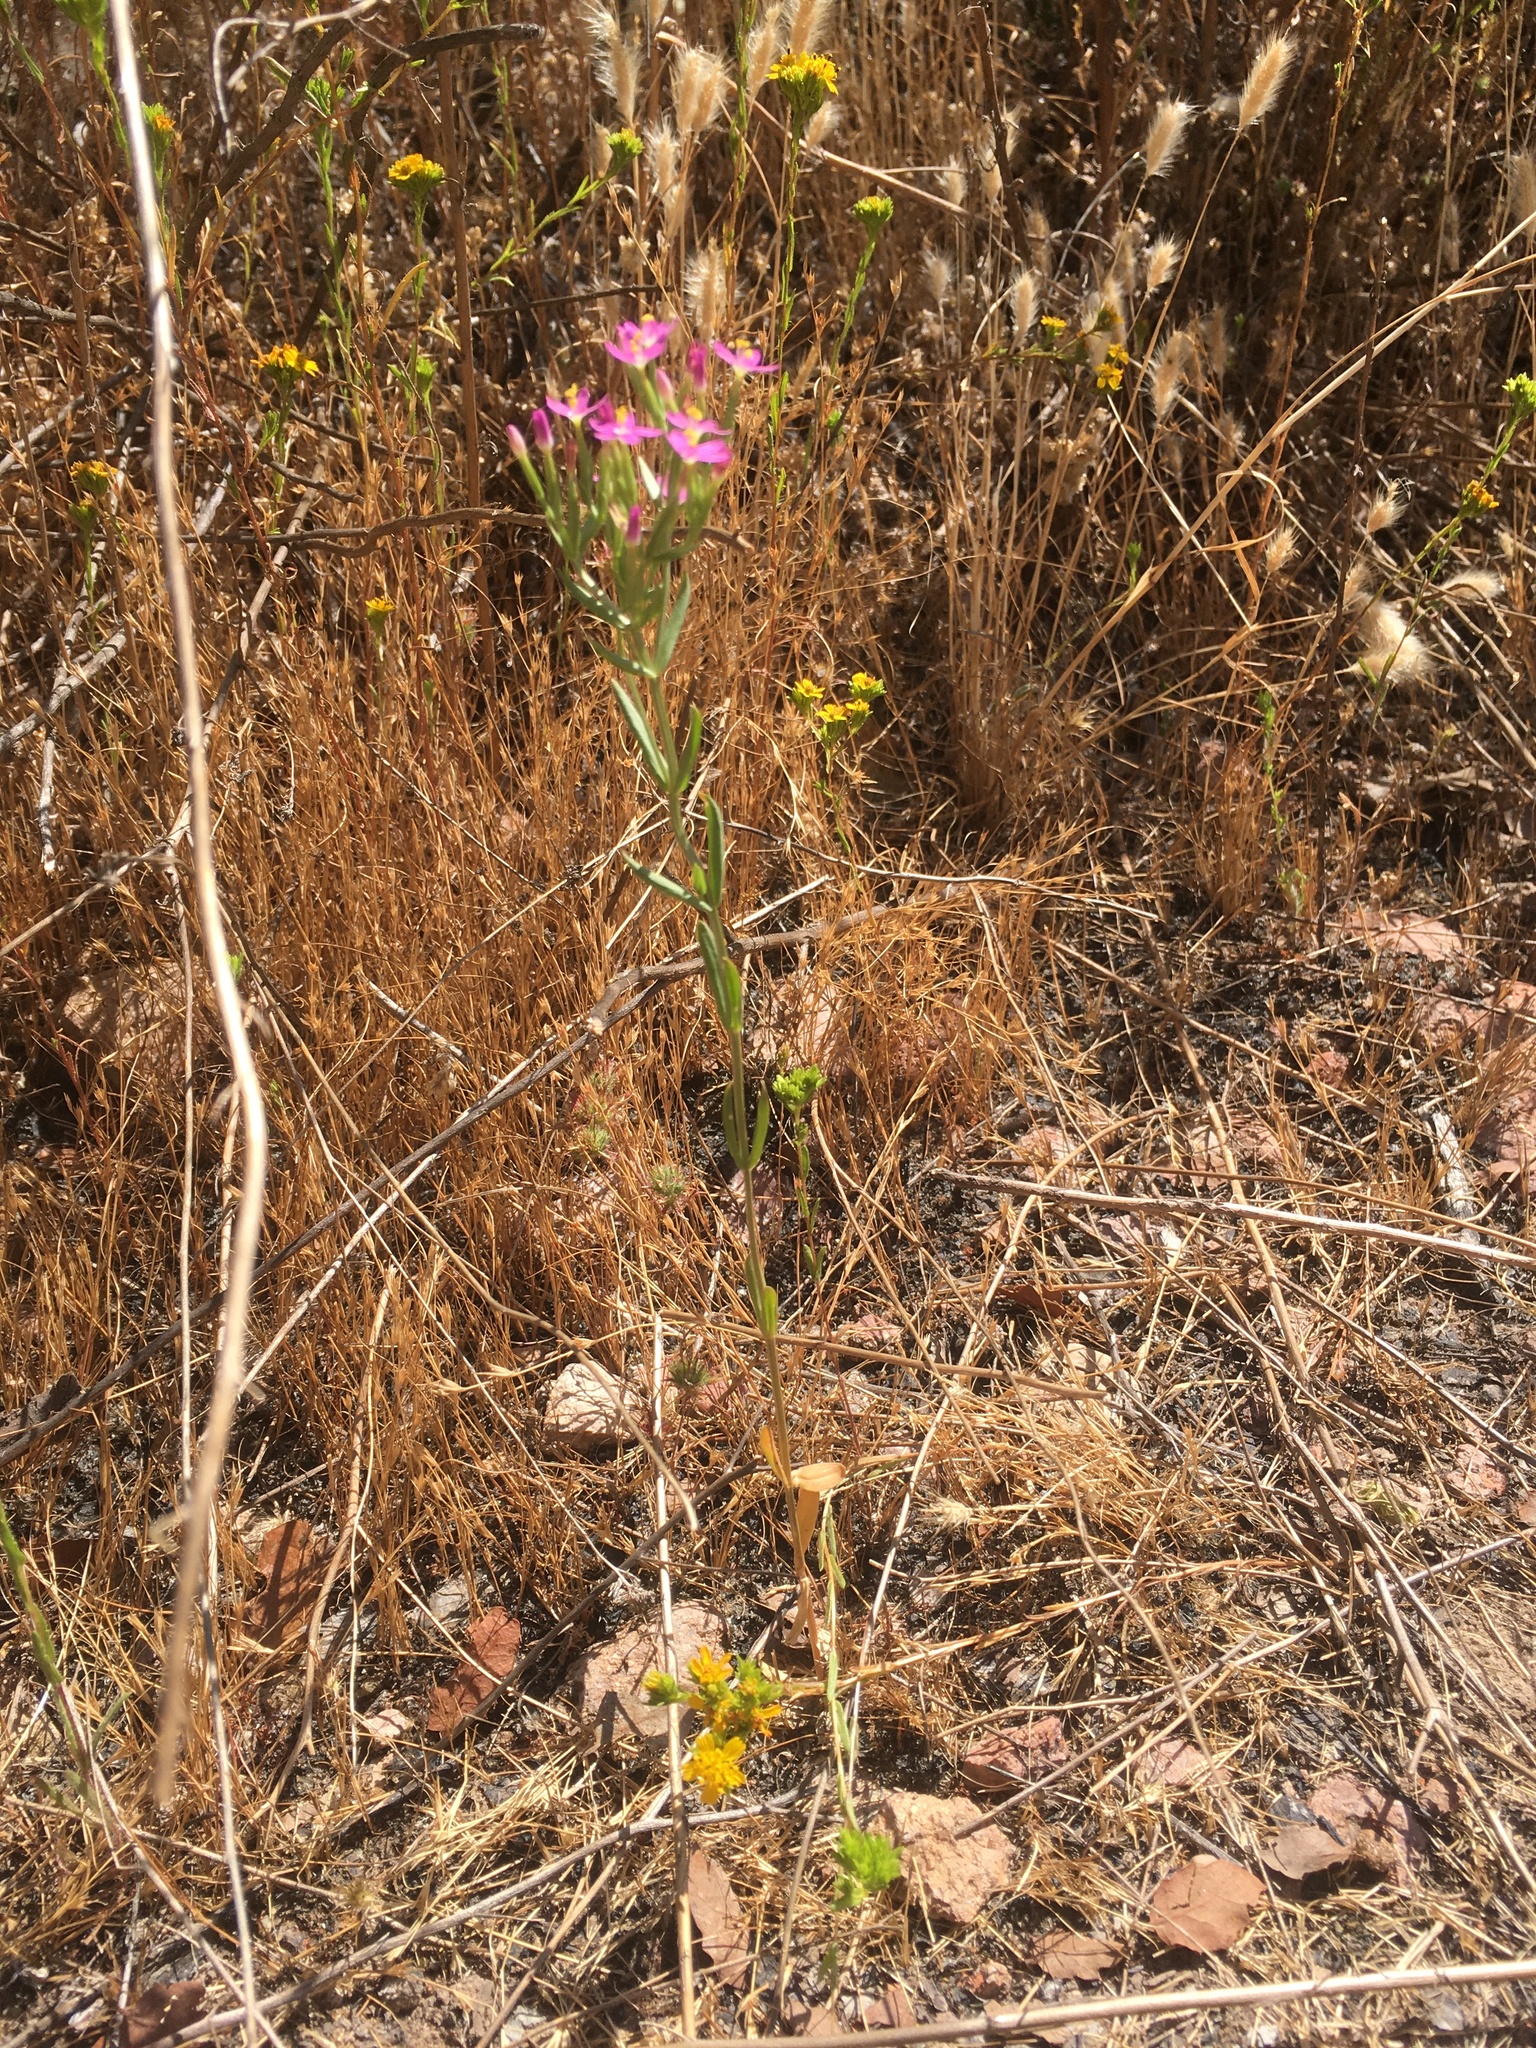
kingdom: Plantae
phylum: Tracheophyta
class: Magnoliopsida
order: Gentianales
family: Gentianaceae
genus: Centaurium
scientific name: Centaurium tenuiflorum
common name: Slender centaury
